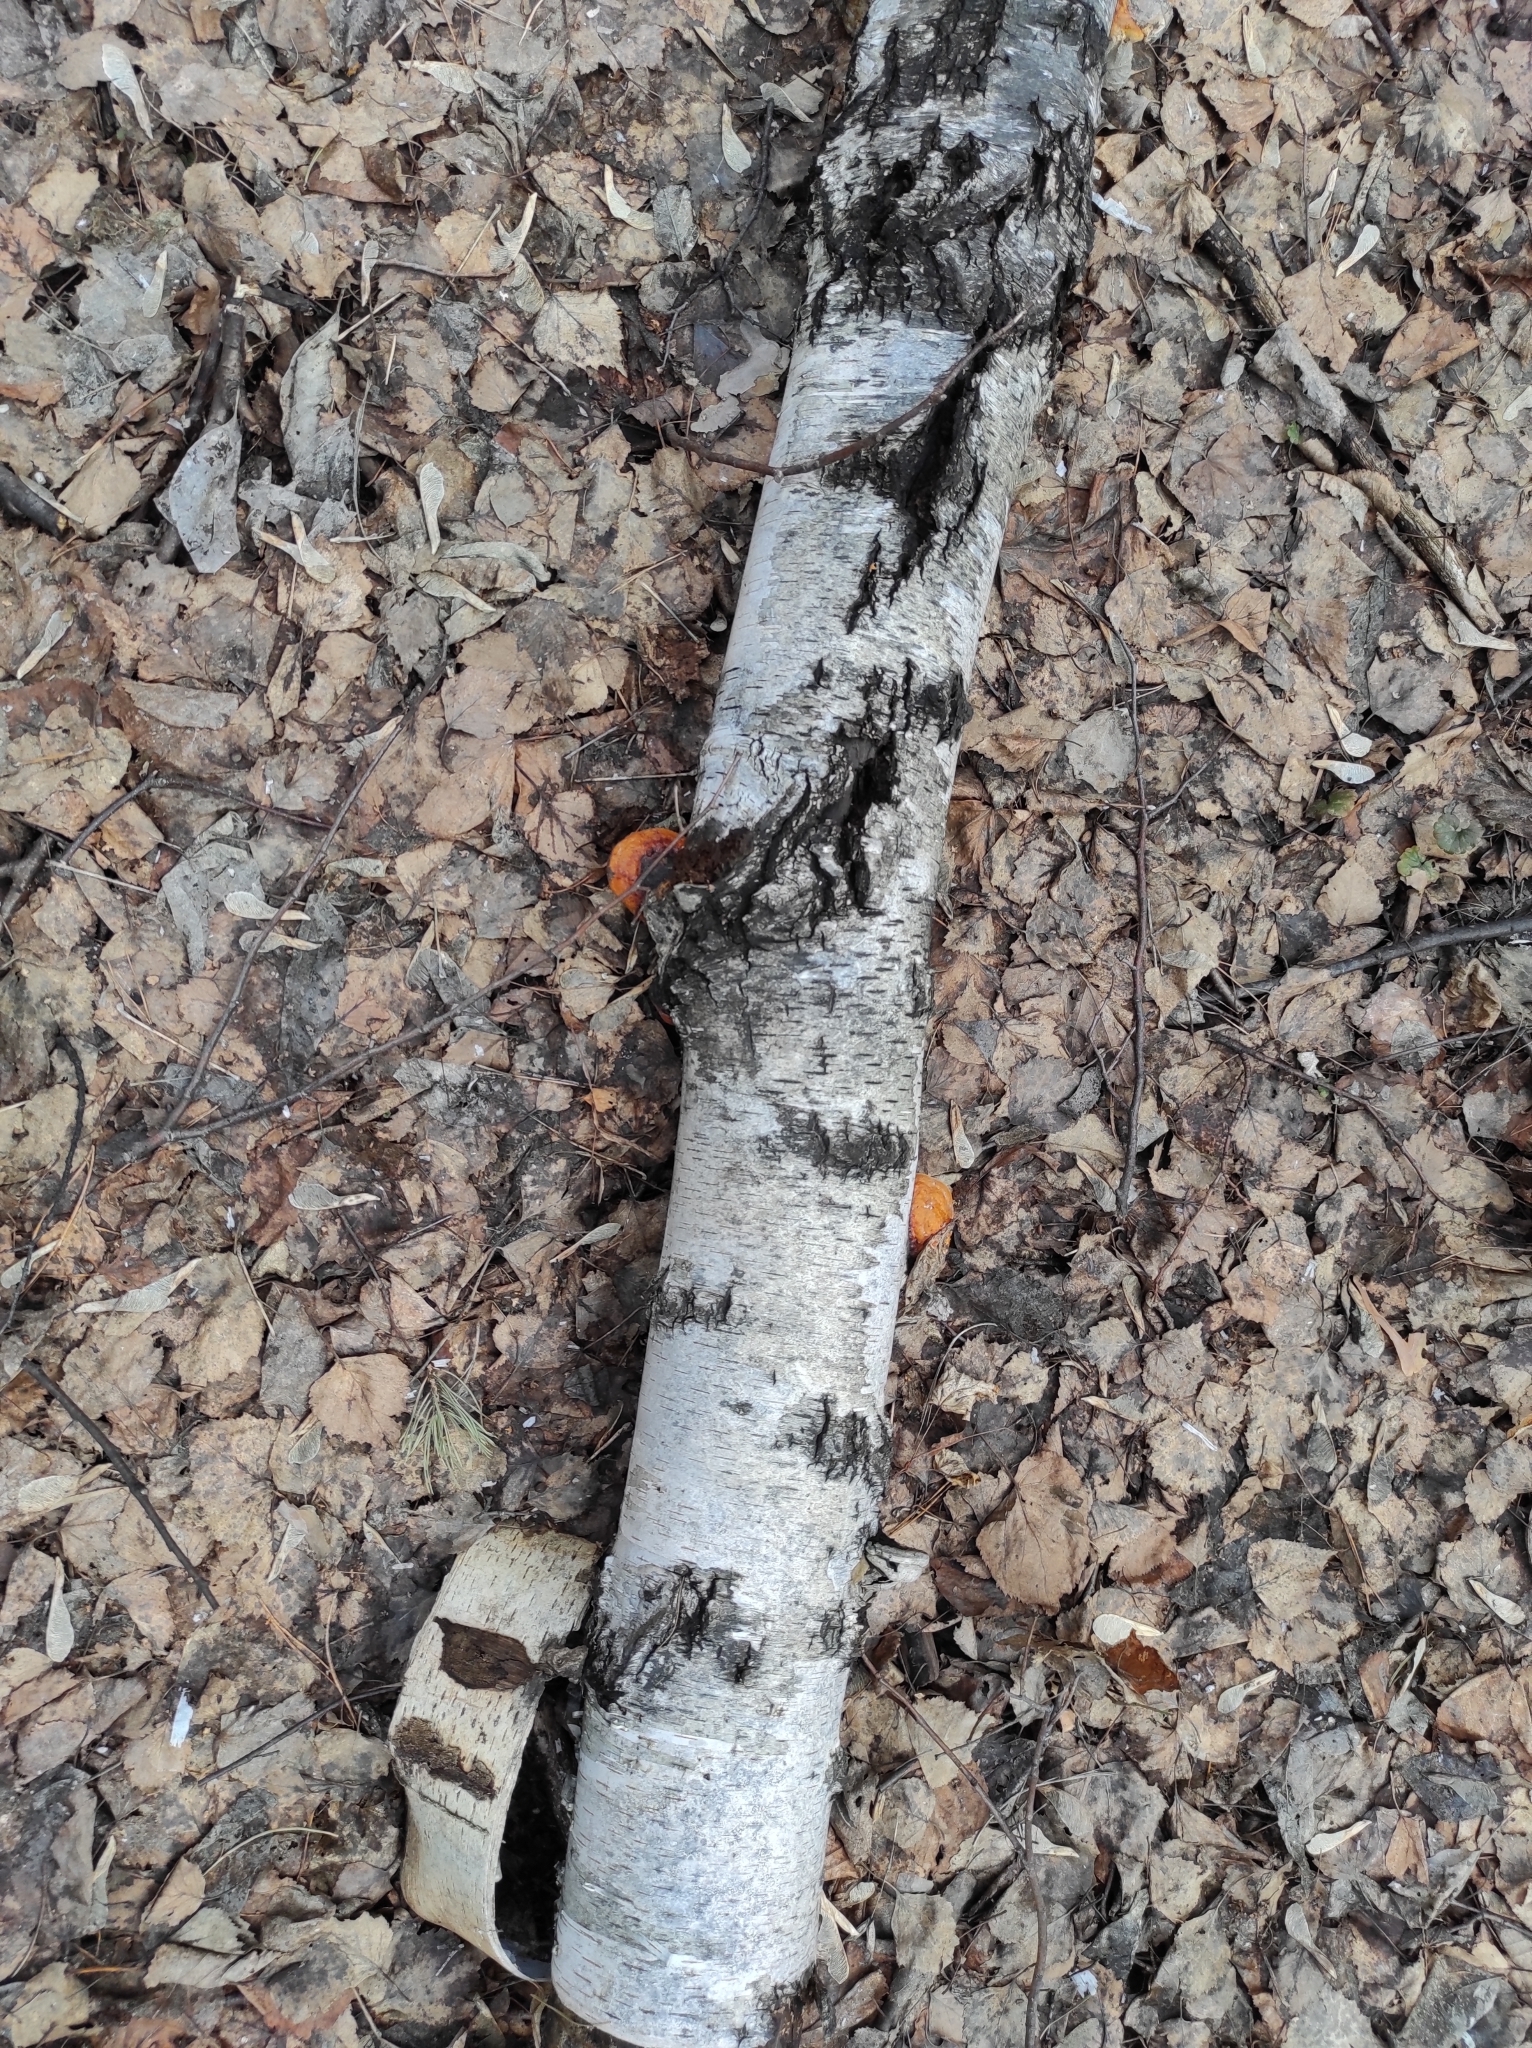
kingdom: Fungi
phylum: Basidiomycota
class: Agaricomycetes
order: Polyporales
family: Fomitopsidaceae
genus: Fomitopsis
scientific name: Fomitopsis pinicola
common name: Red-belted bracket
